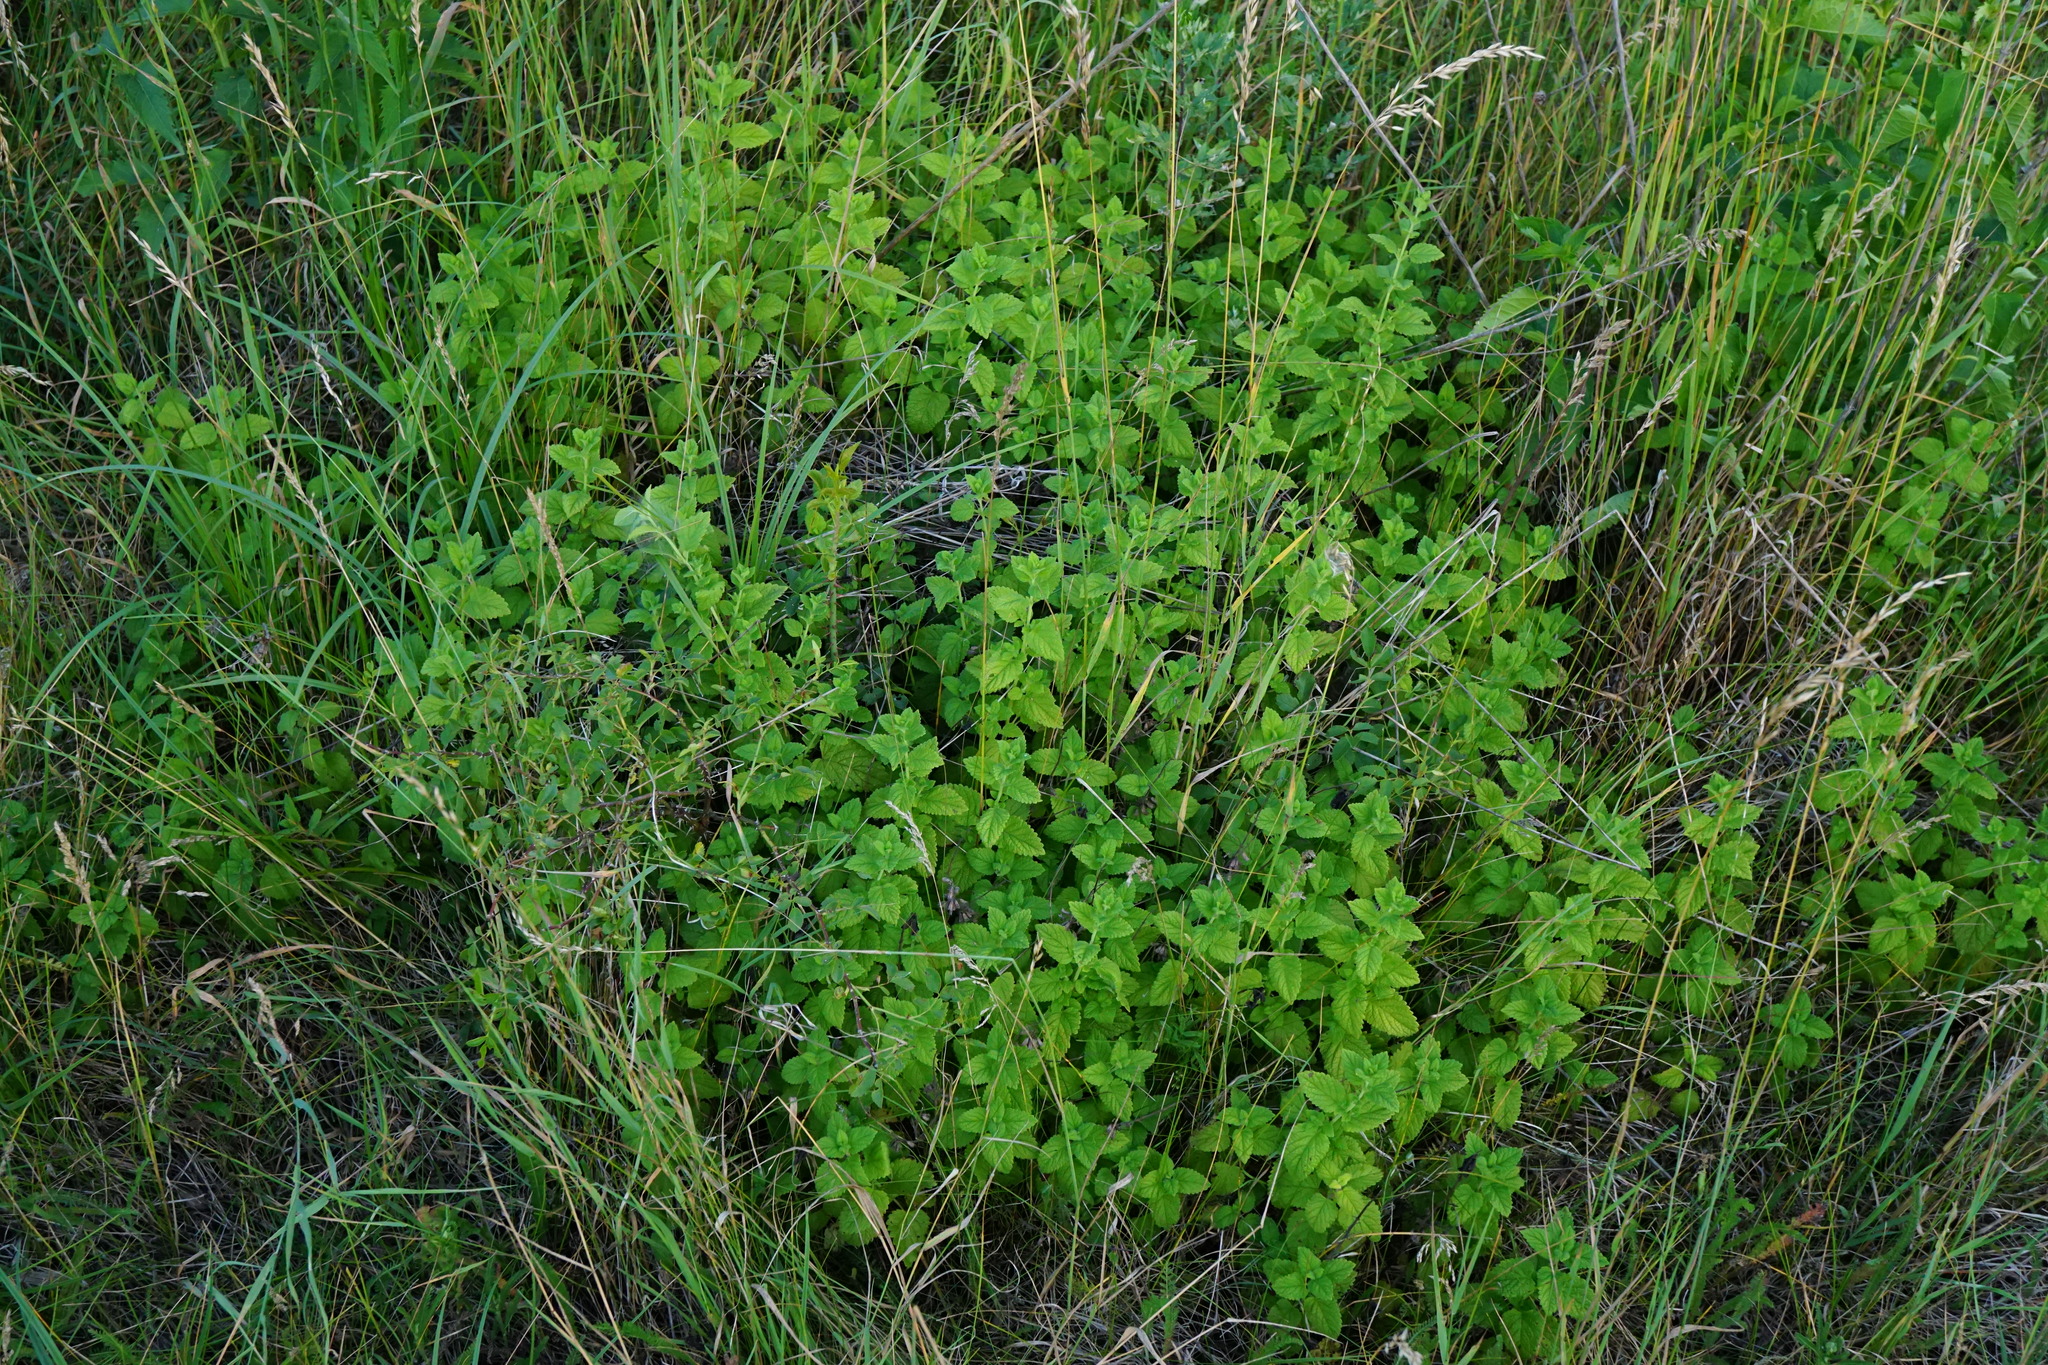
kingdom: Plantae
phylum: Tracheophyta
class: Magnoliopsida
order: Lamiales
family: Lamiaceae
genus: Melissa
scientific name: Melissa officinalis
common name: Balm
